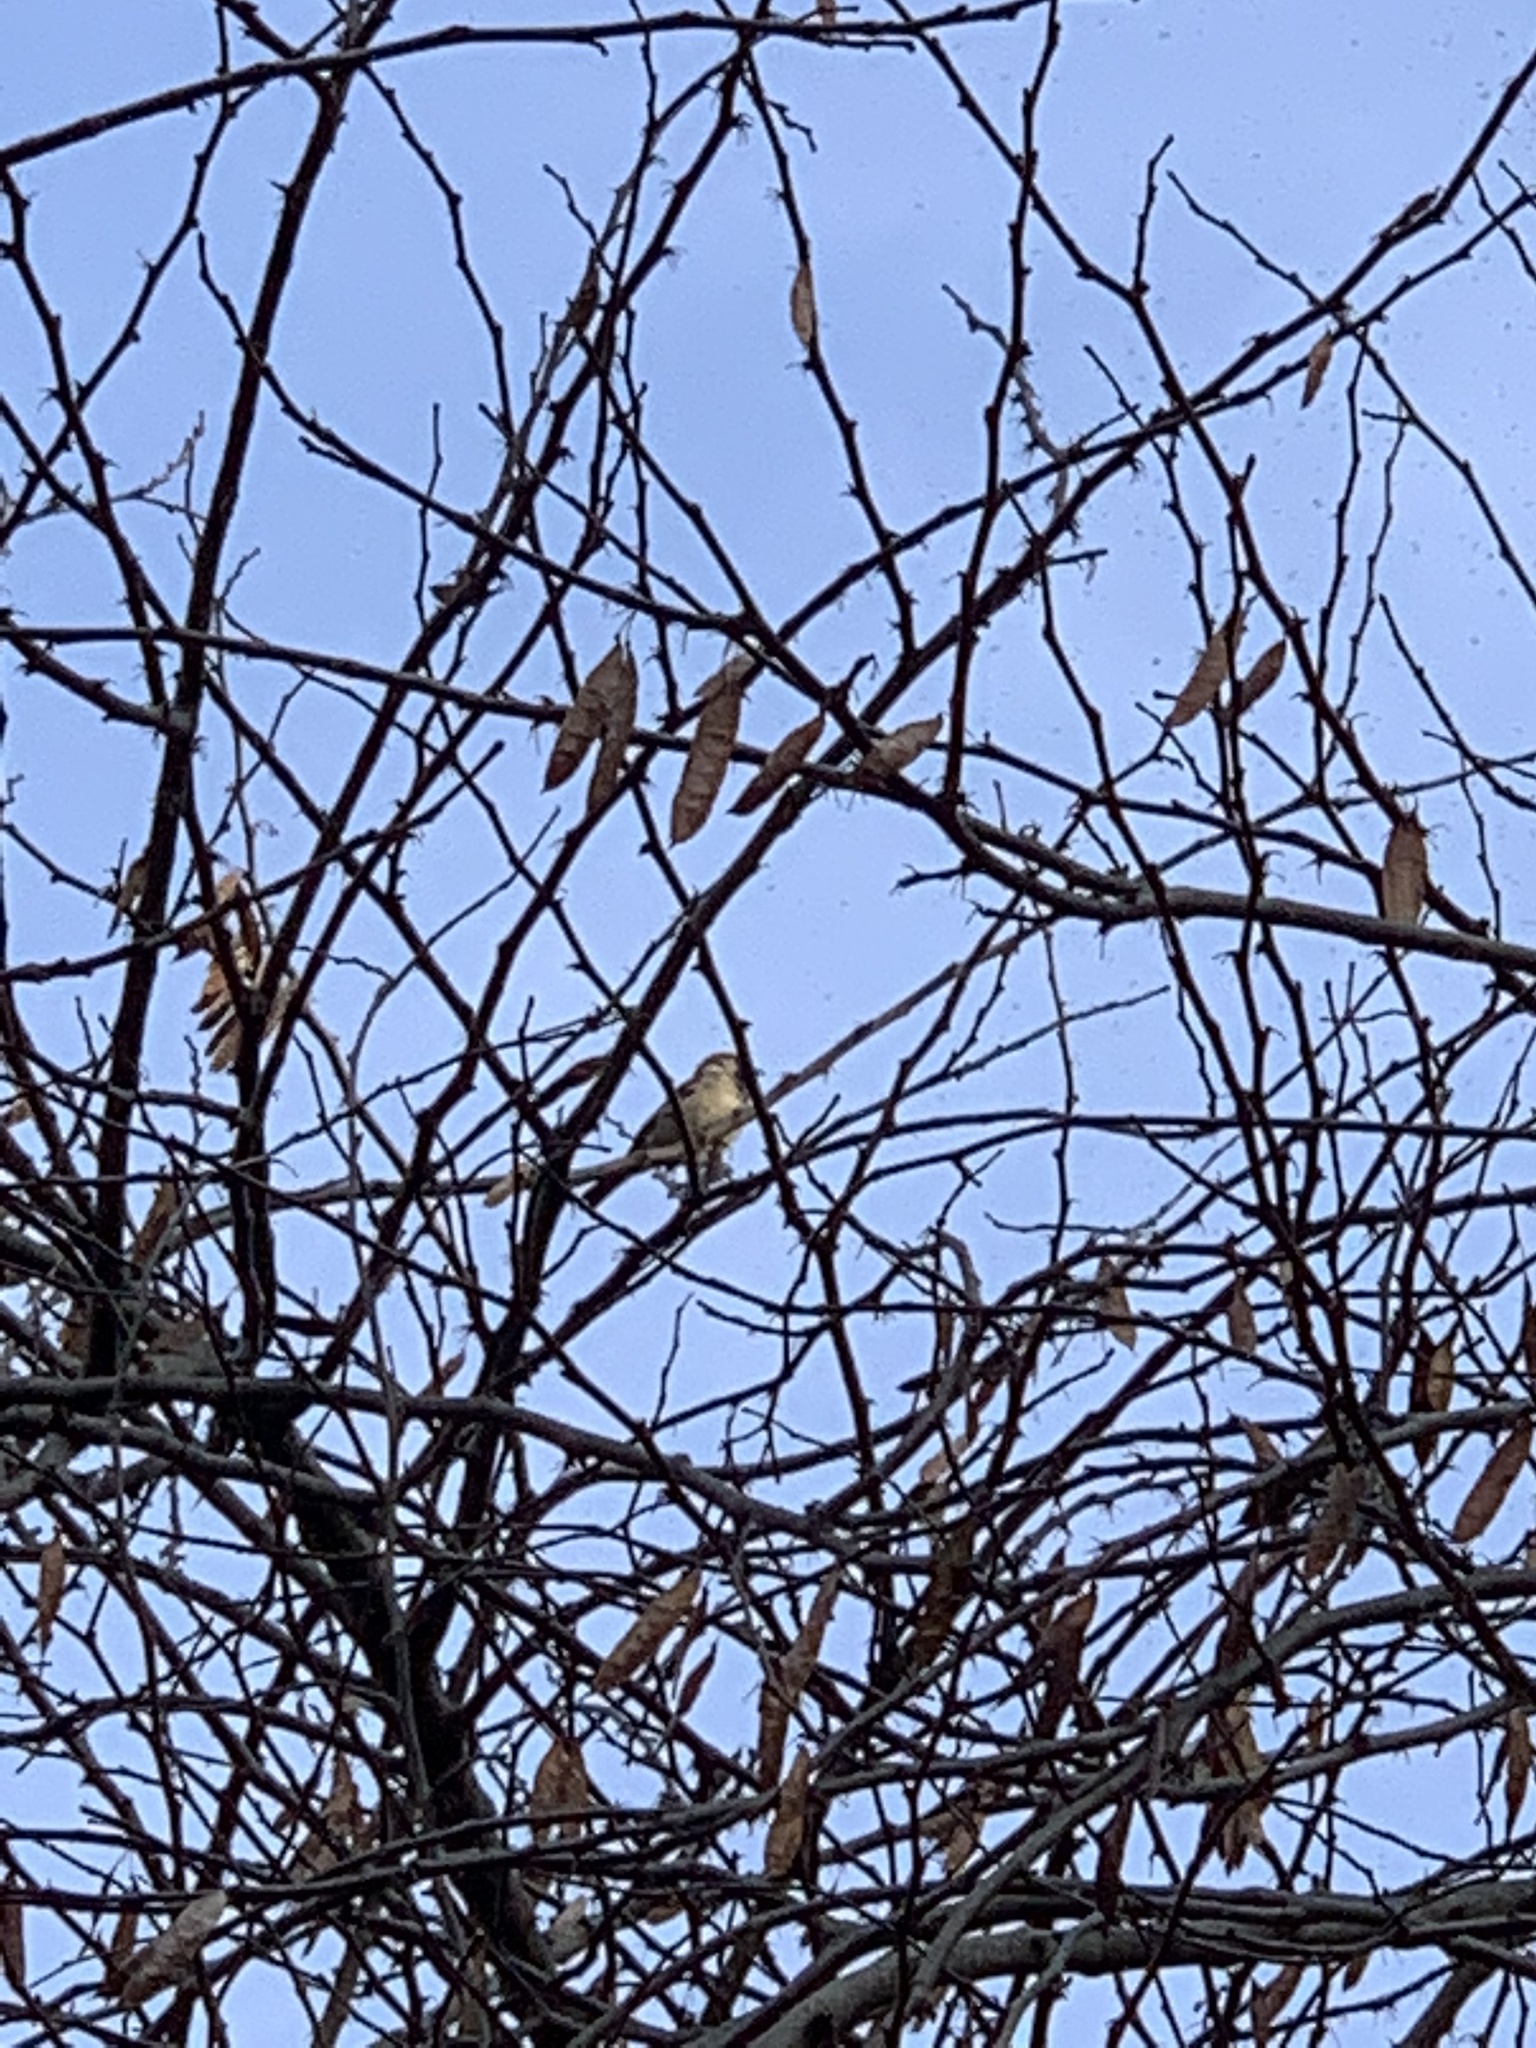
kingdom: Animalia
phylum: Chordata
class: Aves
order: Passeriformes
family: Passeridae
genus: Passer
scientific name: Passer domesticus
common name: House sparrow
